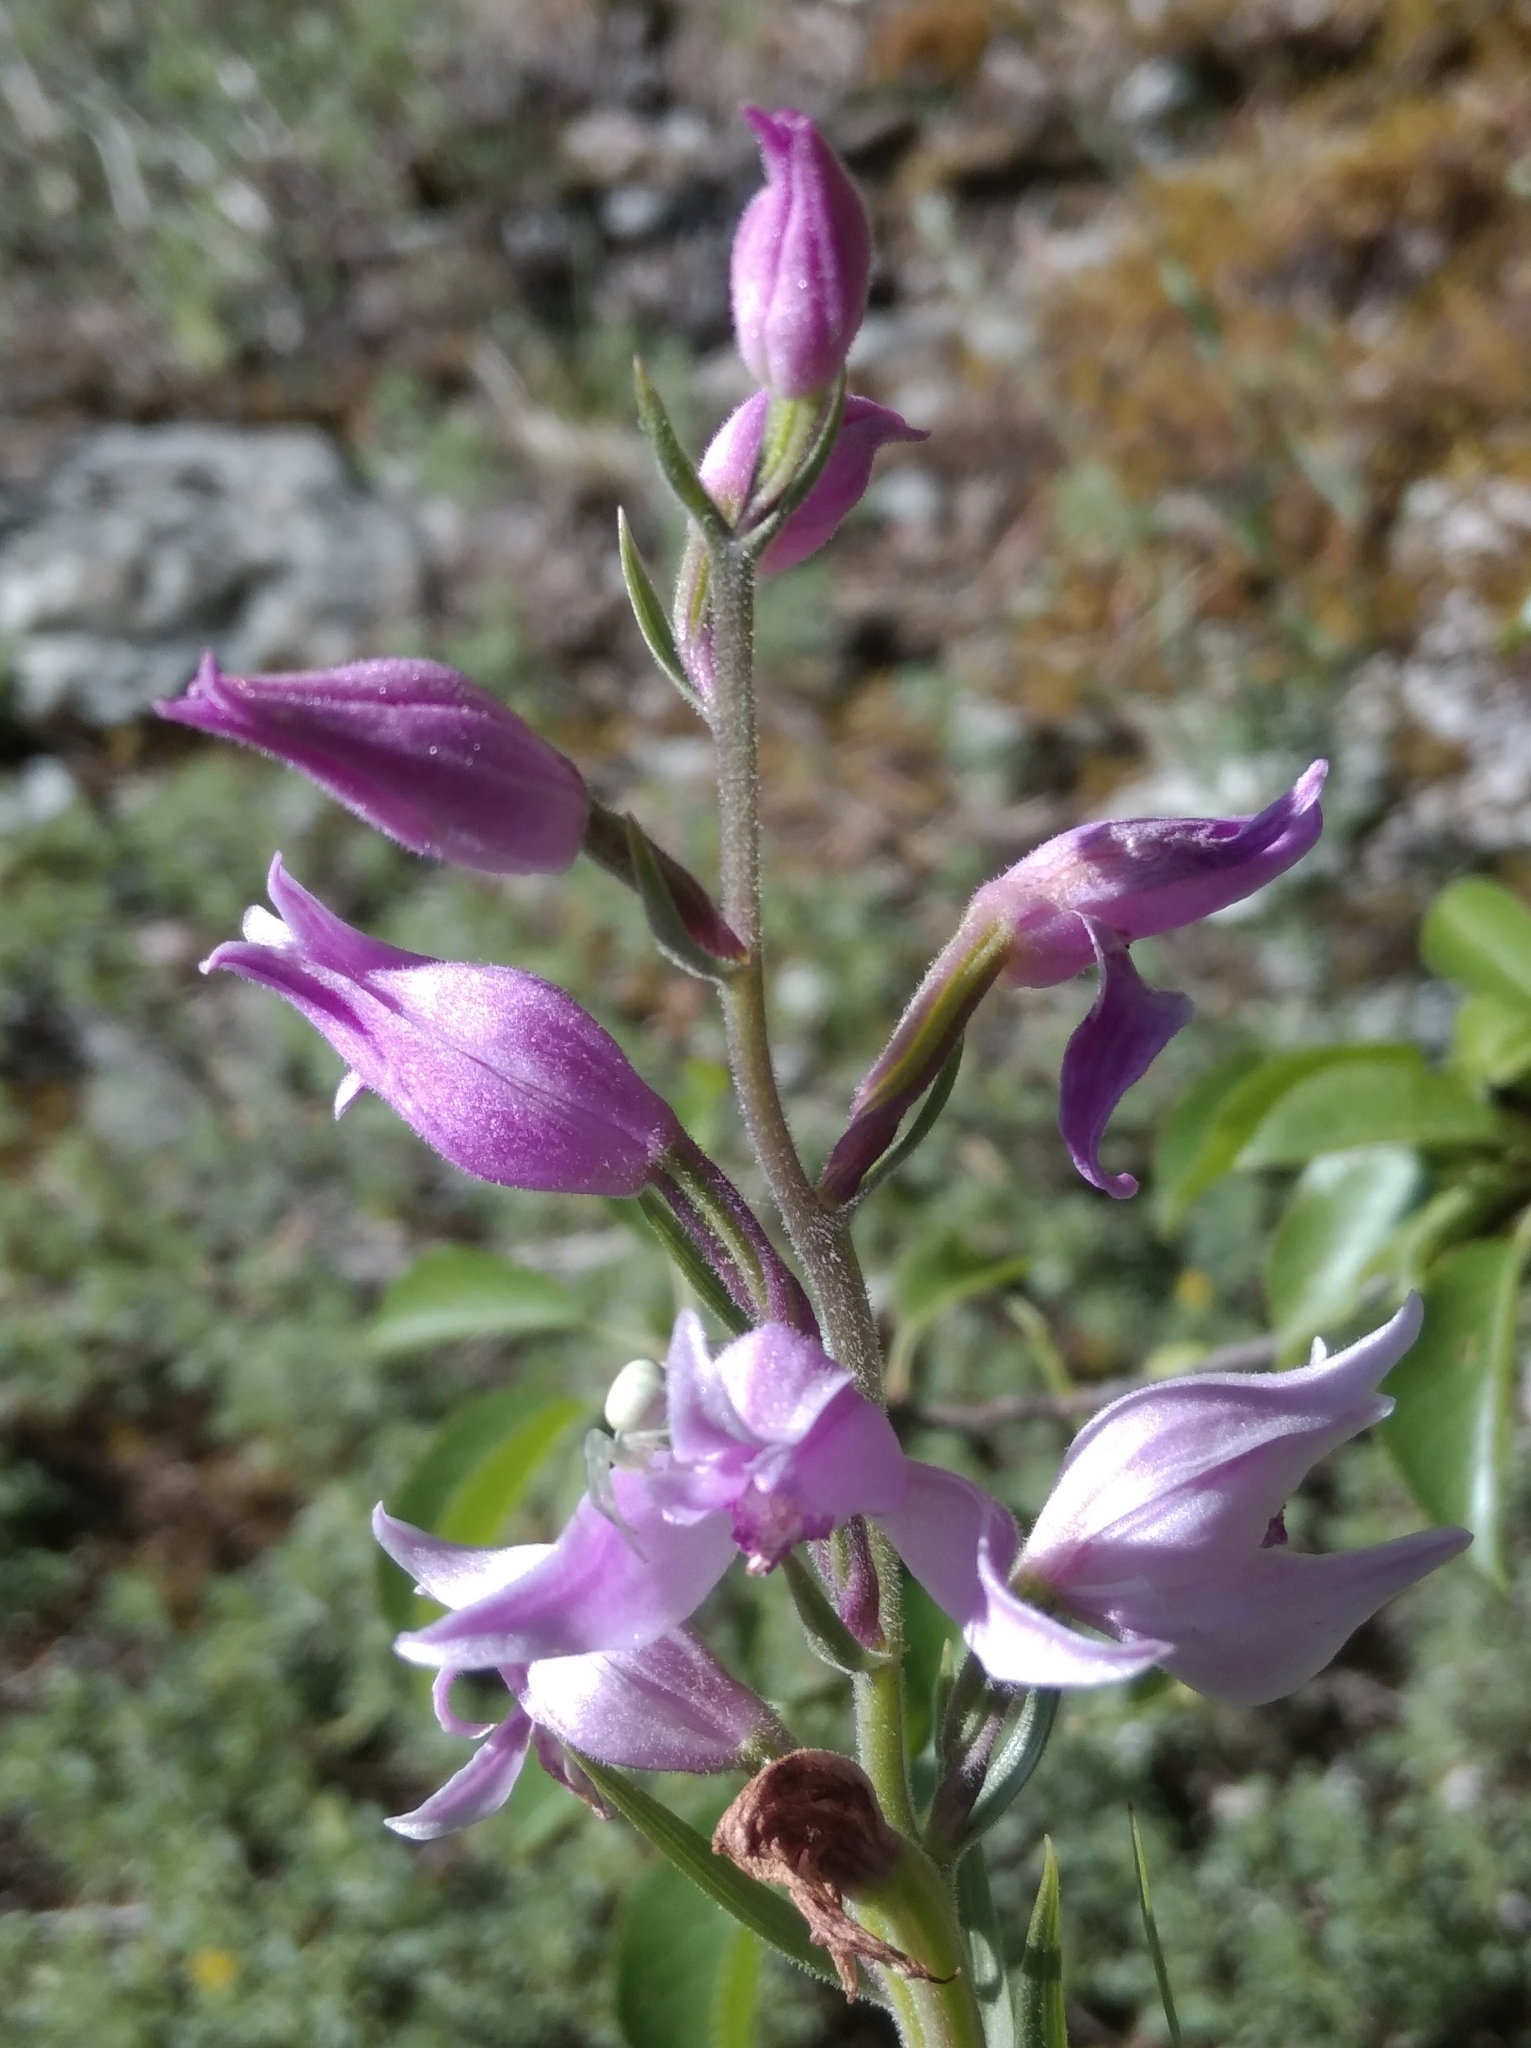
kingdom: Plantae
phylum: Tracheophyta
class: Liliopsida
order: Asparagales
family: Orchidaceae
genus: Cephalanthera
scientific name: Cephalanthera rubra
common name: Red helleborine
